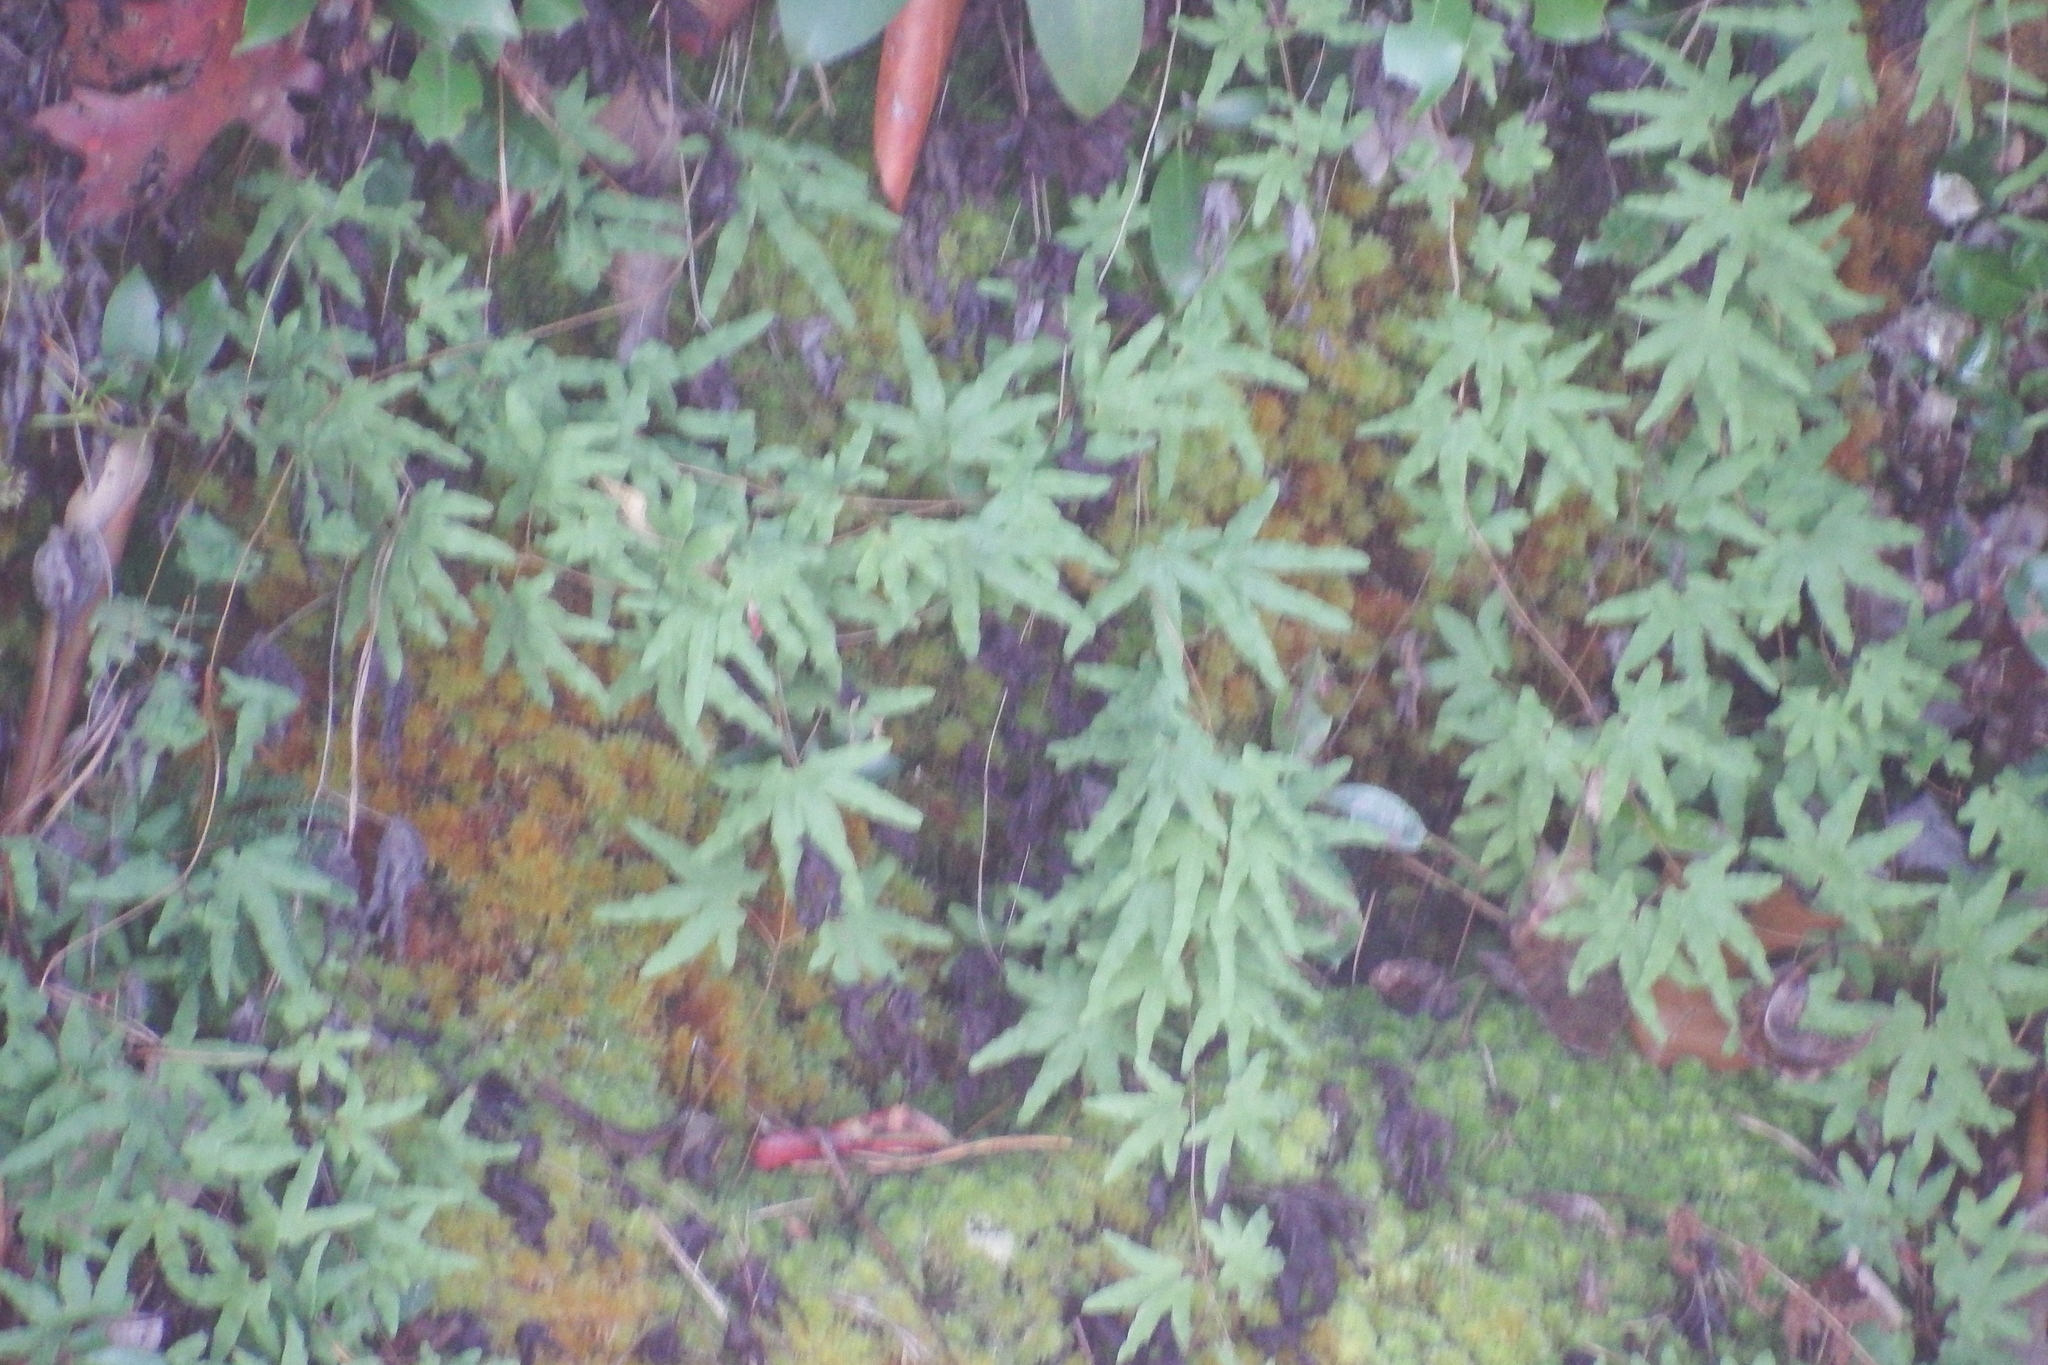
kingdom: Plantae
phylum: Tracheophyta
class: Polypodiopsida
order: Schizaeales
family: Lygodiaceae
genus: Lygodium
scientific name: Lygodium palmatum
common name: American climbing fern
